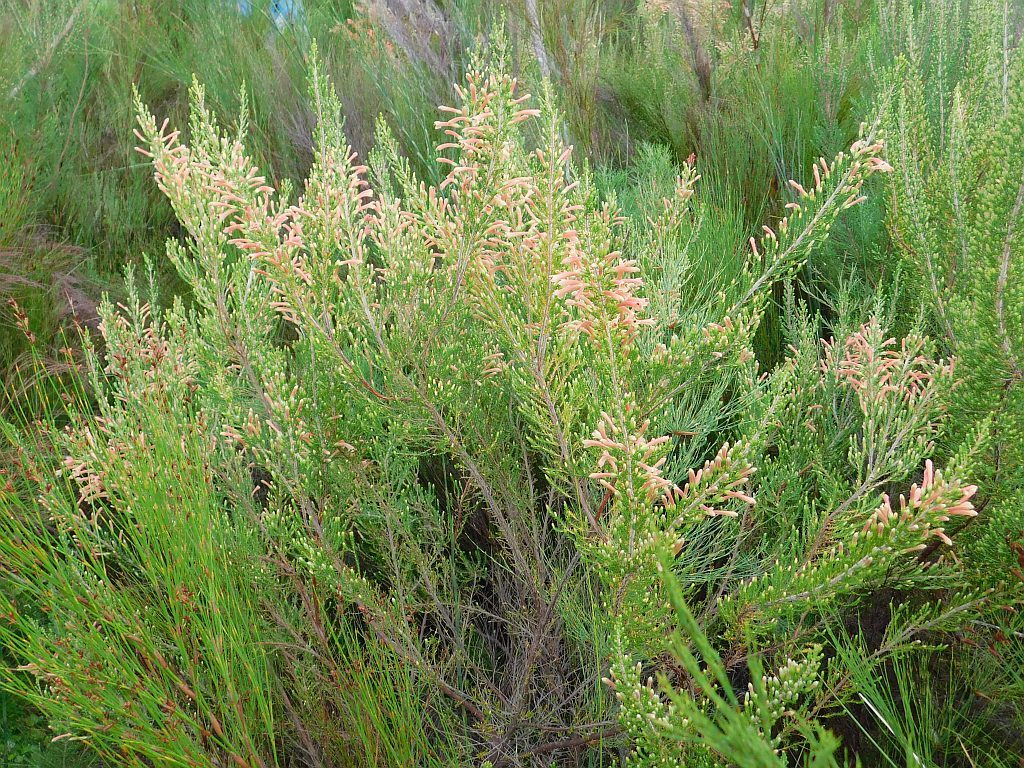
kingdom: Plantae
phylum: Tracheophyta
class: Magnoliopsida
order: Ericales
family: Ericaceae
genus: Erica
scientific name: Erica curviflora
